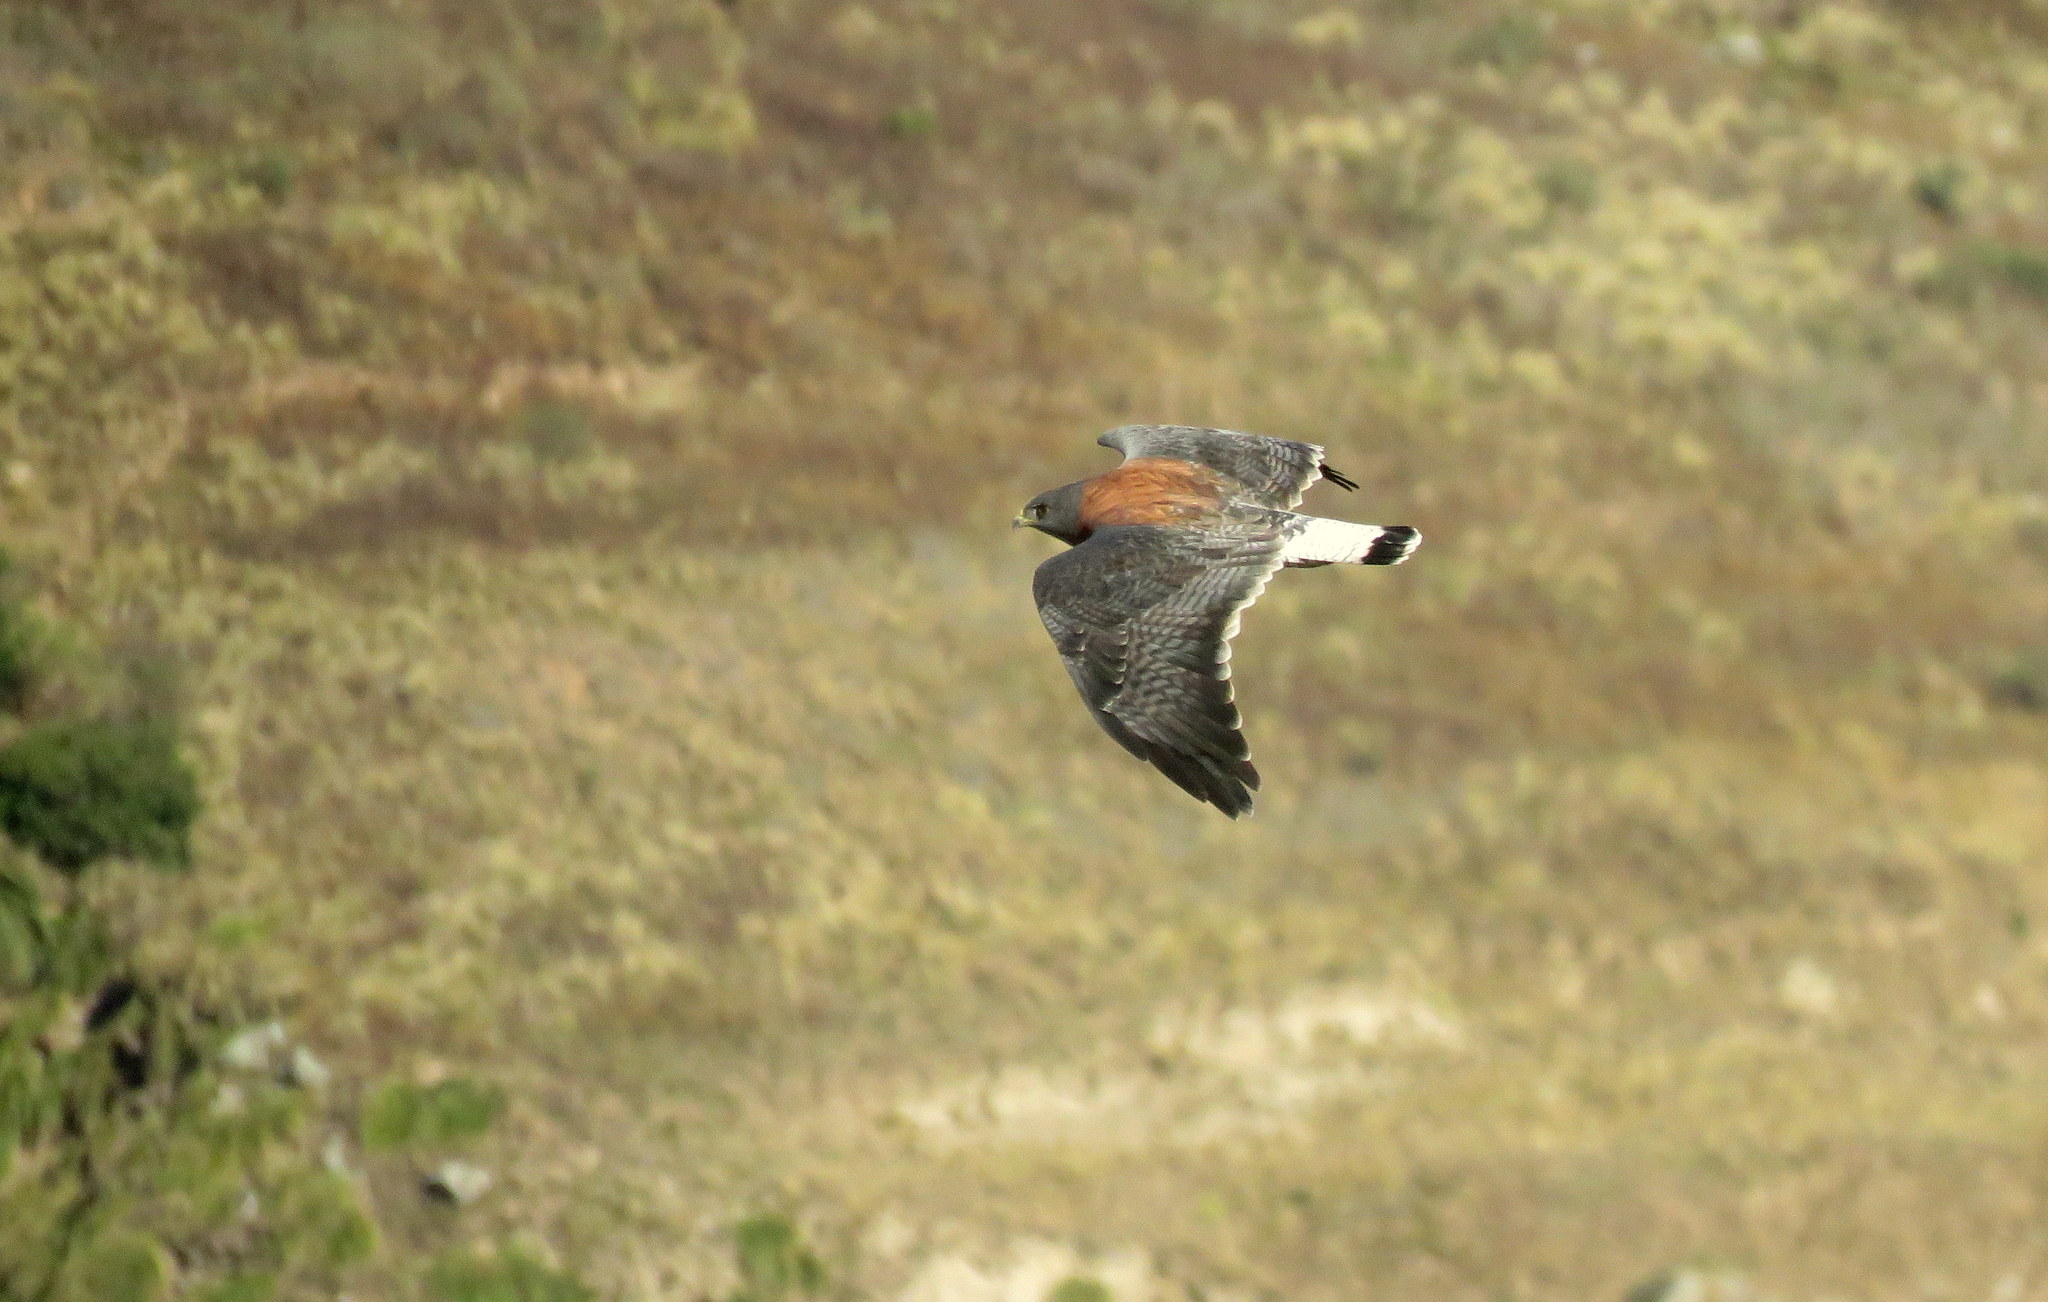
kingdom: Animalia
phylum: Chordata
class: Aves
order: Accipitriformes
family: Accipitridae
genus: Buteo
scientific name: Buteo polyosoma
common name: Variable hawk
